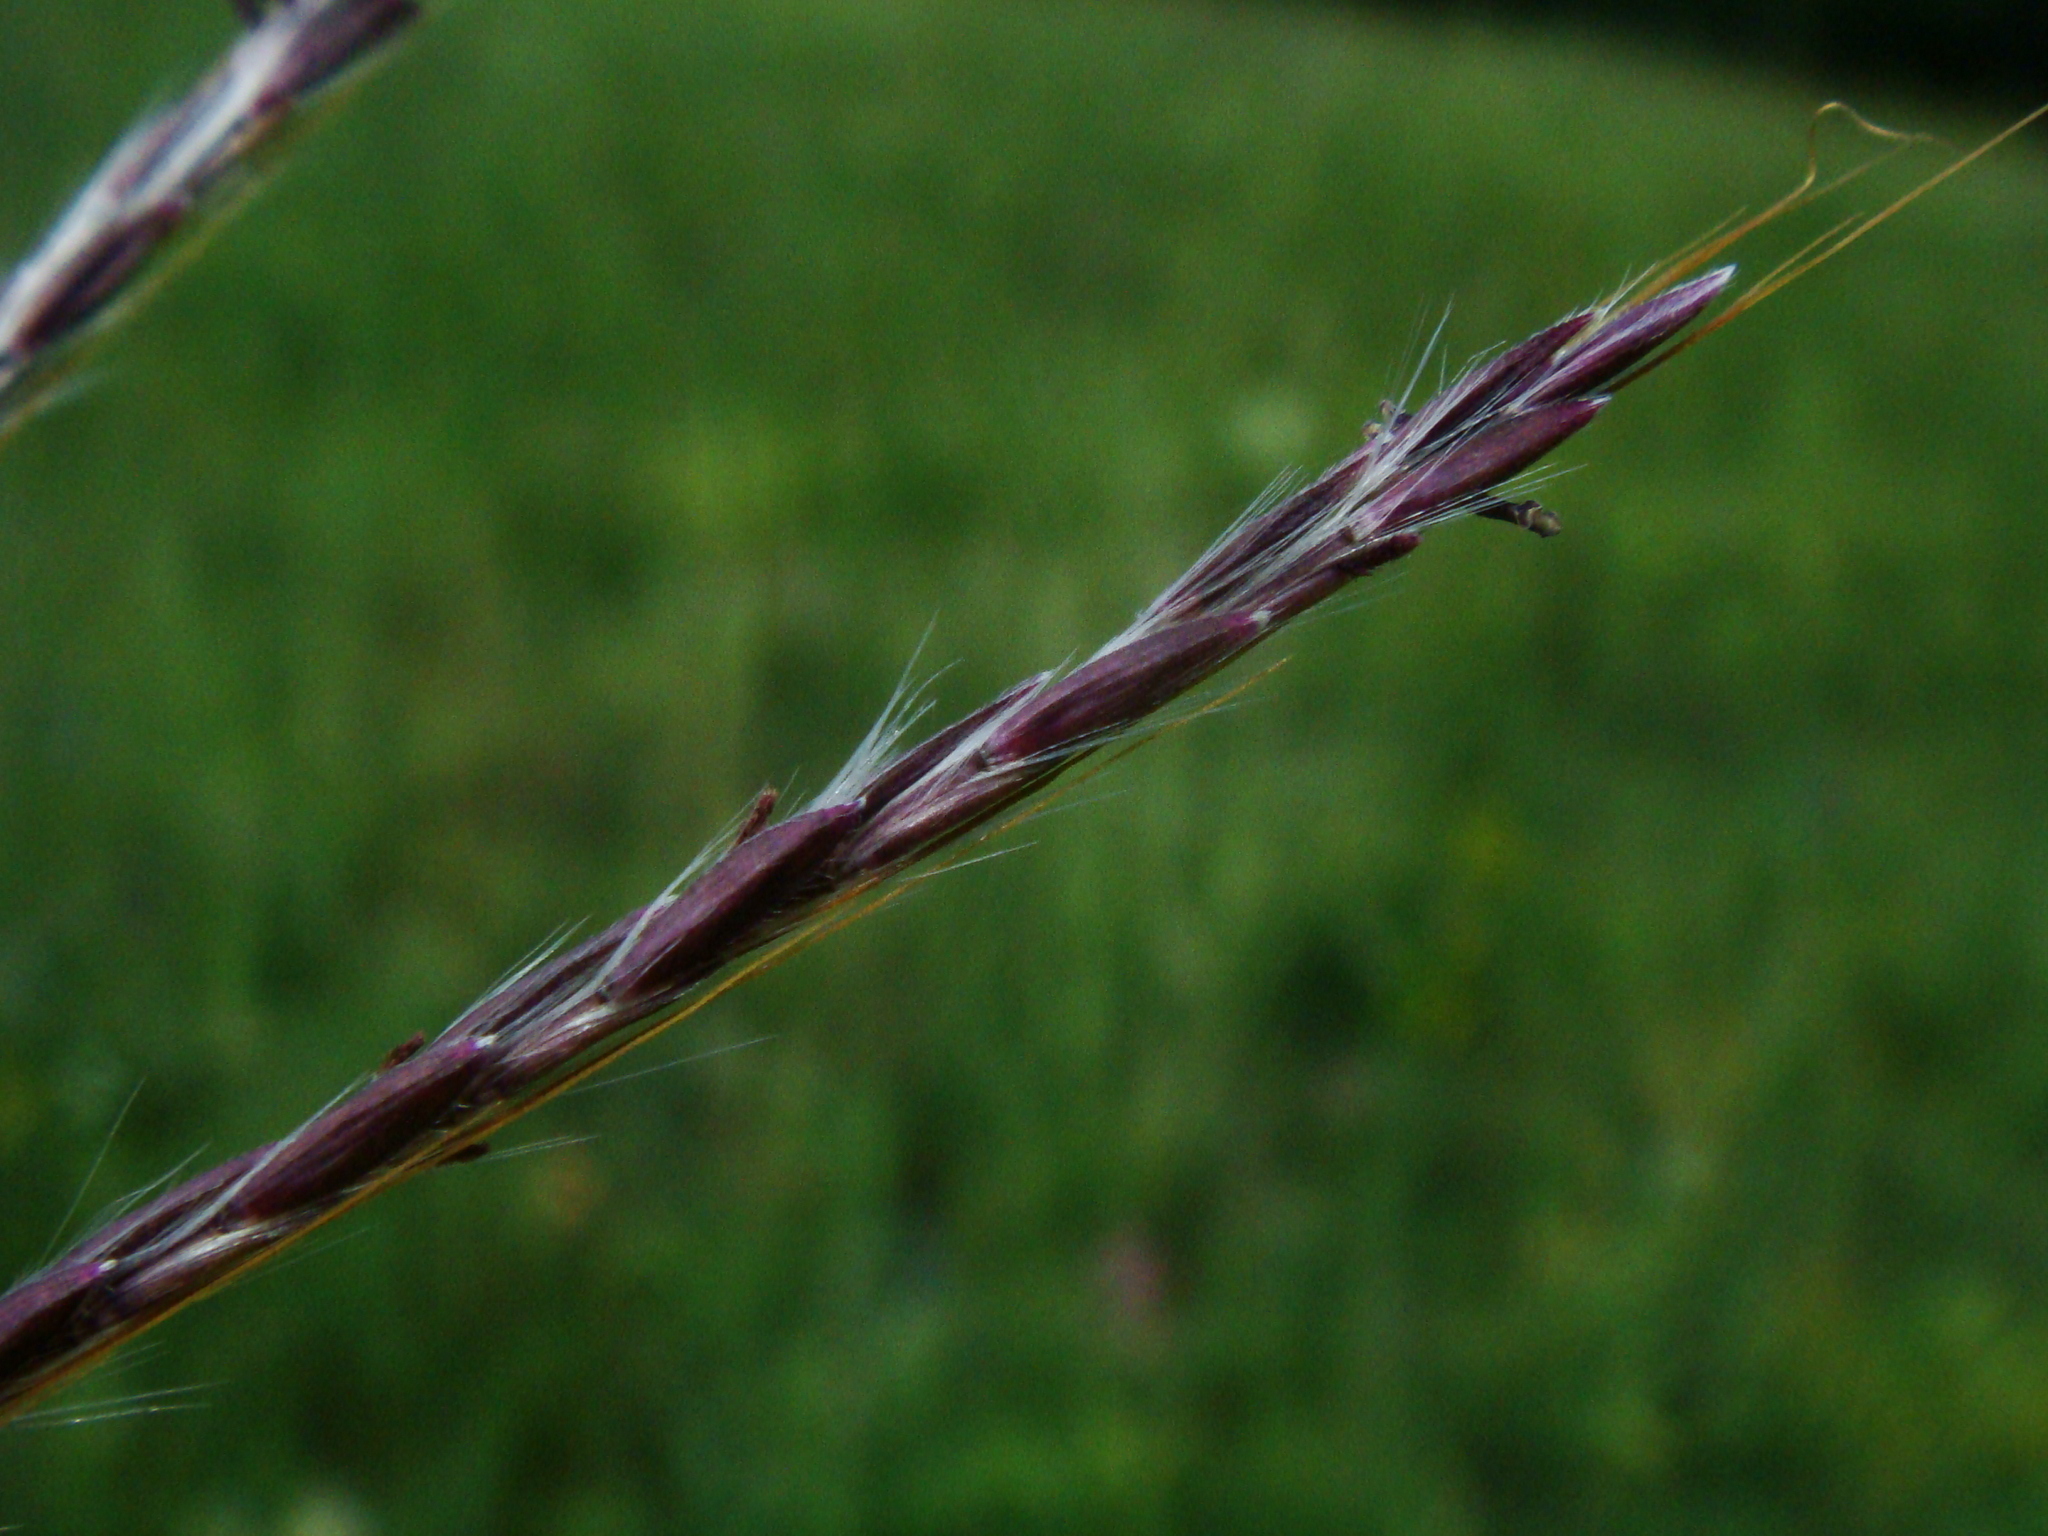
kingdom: Plantae
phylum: Tracheophyta
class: Liliopsida
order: Poales
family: Poaceae
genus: Bothriochloa
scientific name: Bothriochloa ischaemum
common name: Yellow bluestem
